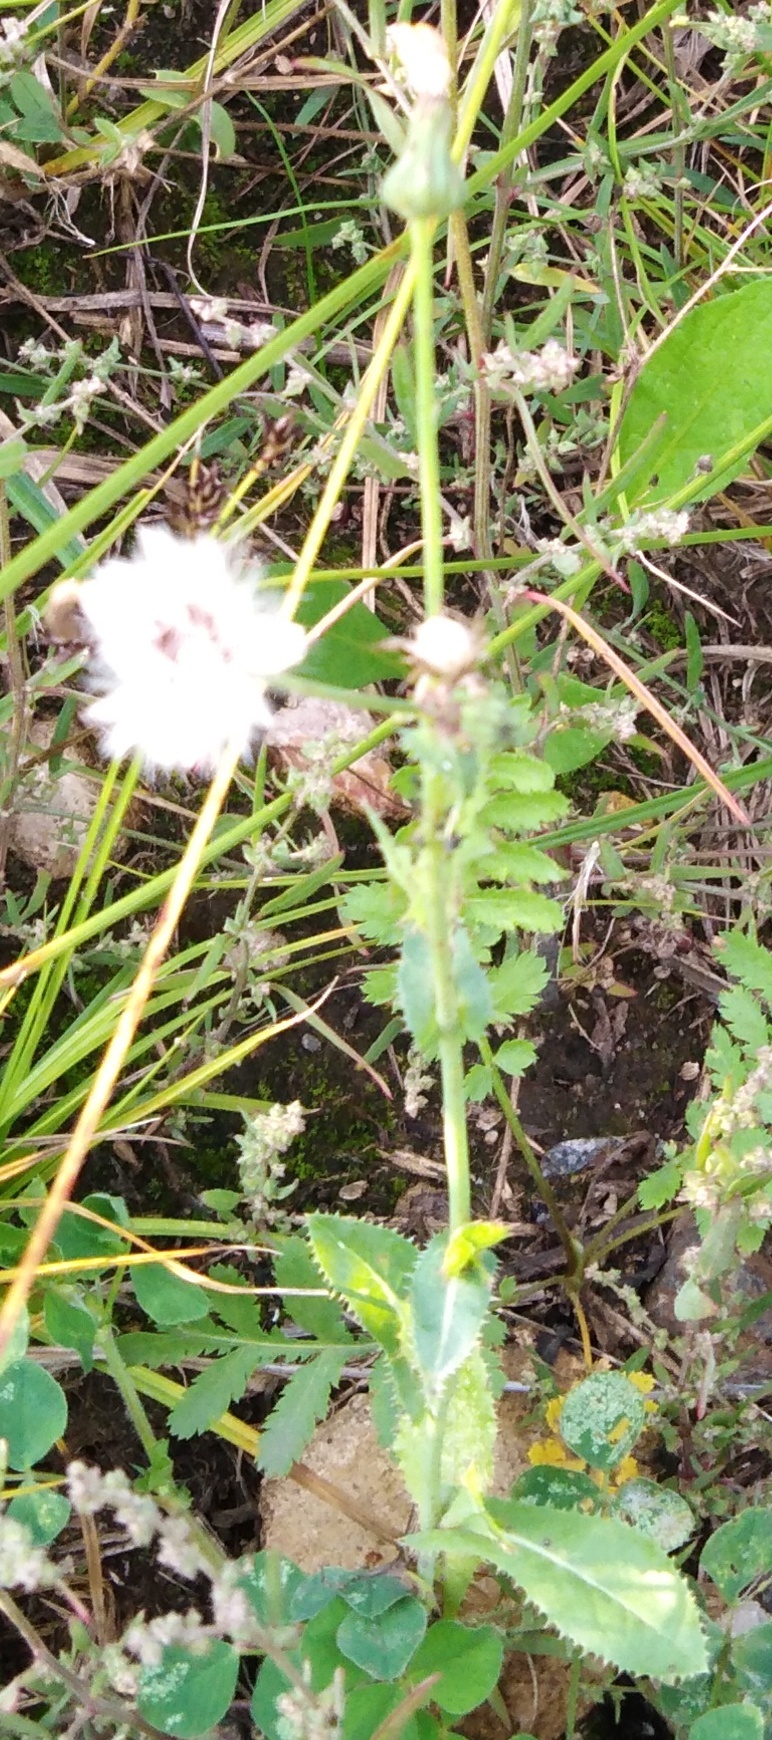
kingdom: Plantae
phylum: Tracheophyta
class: Magnoliopsida
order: Asterales
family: Asteraceae
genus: Sonchus
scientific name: Sonchus asper
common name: Prickly sow-thistle
